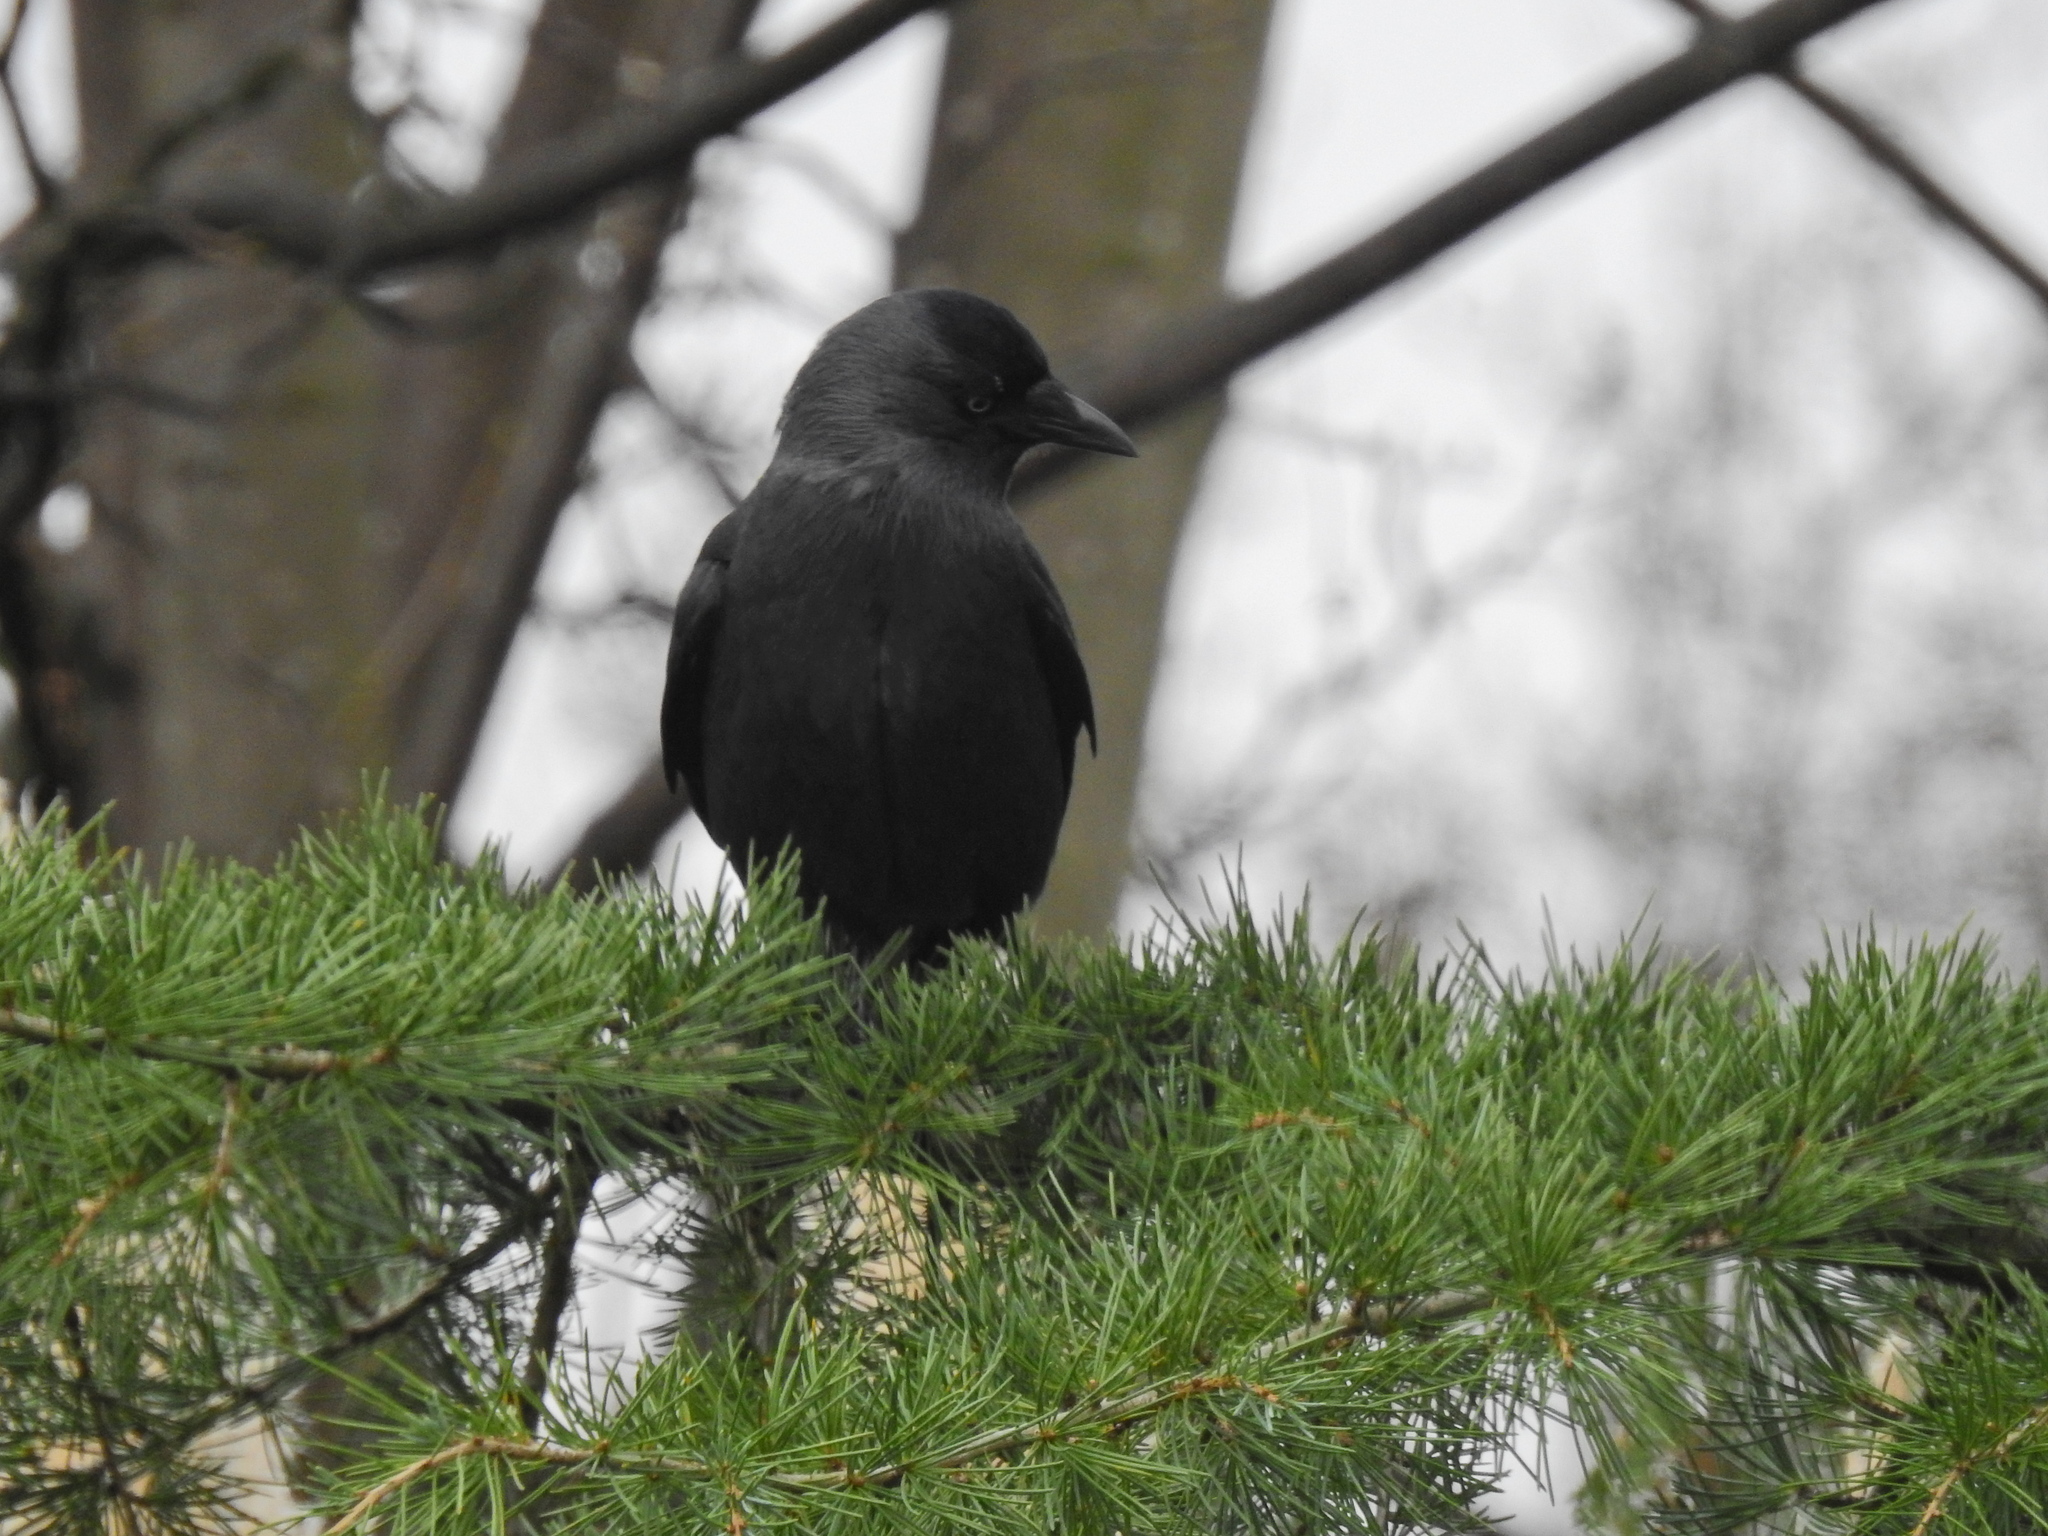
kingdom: Animalia
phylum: Chordata
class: Aves
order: Passeriformes
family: Corvidae
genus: Coloeus
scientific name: Coloeus monedula
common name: Western jackdaw
